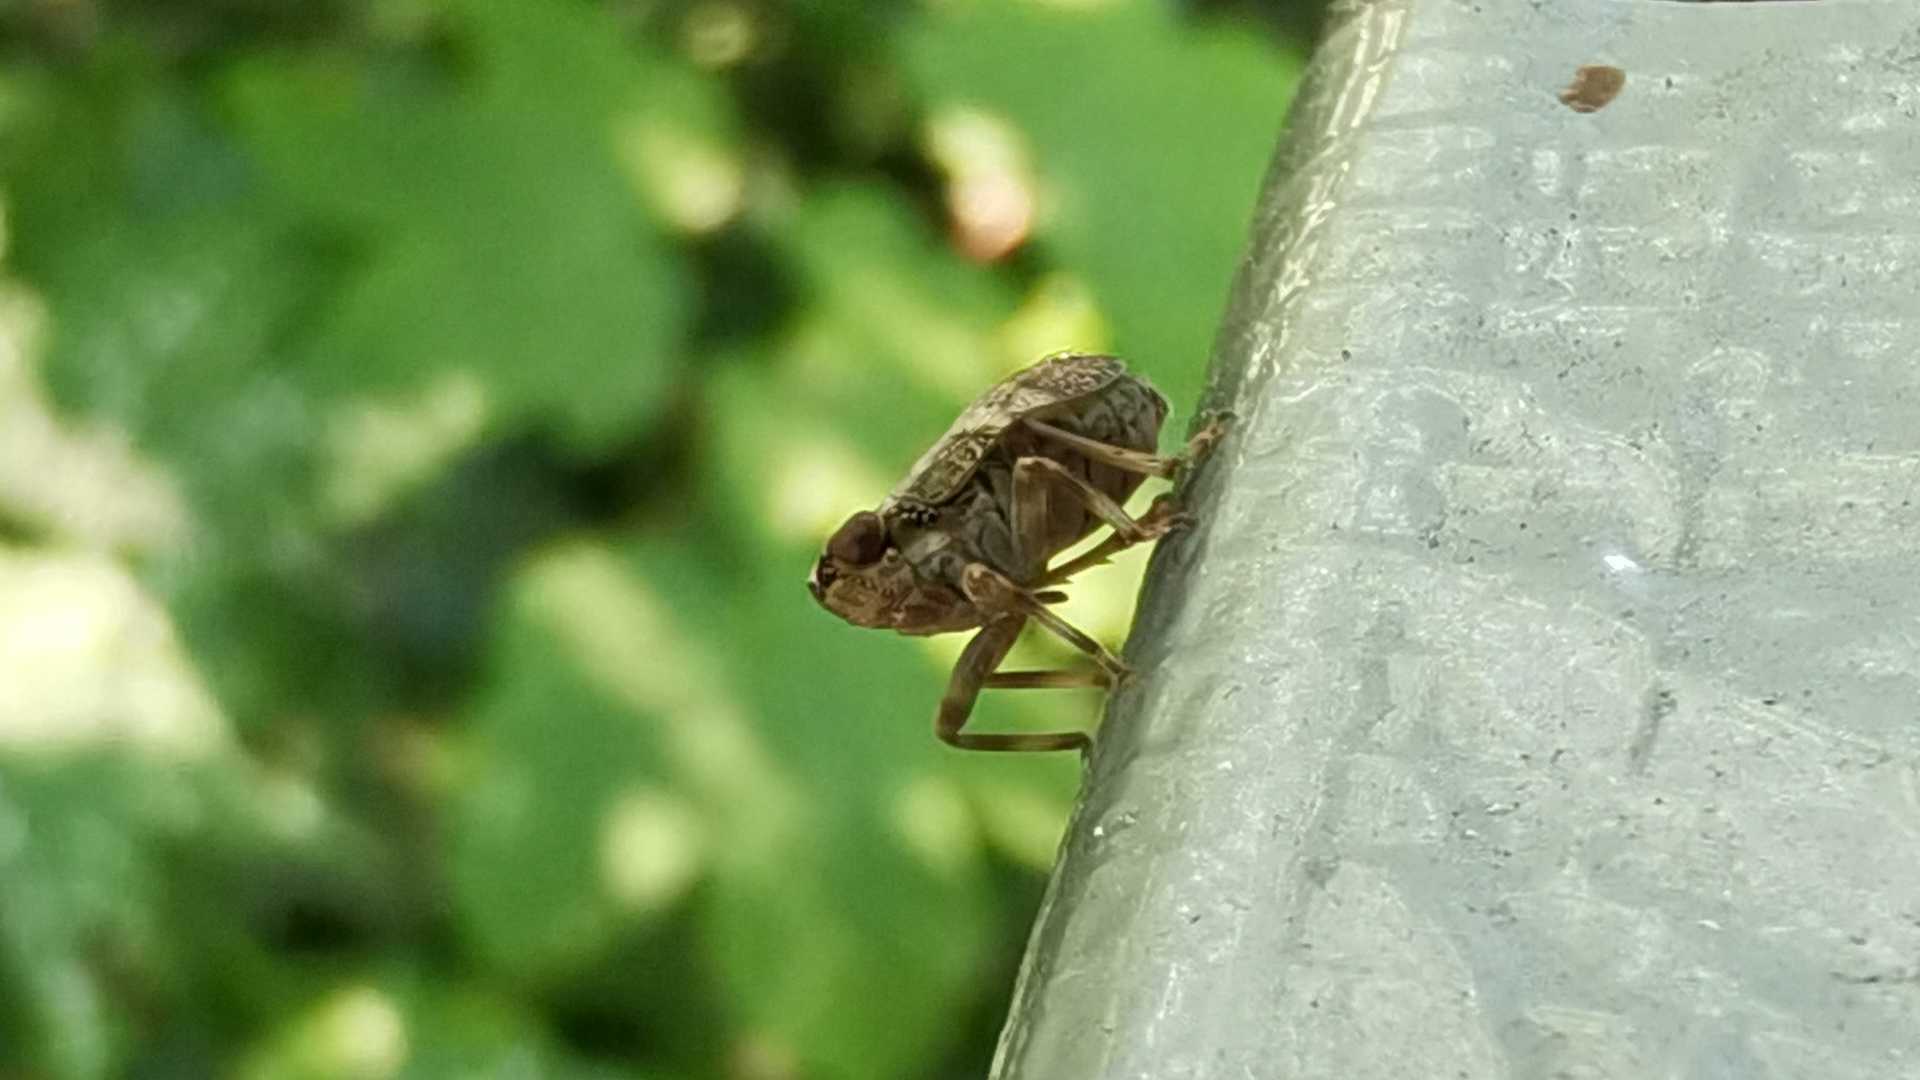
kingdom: Animalia
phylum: Arthropoda
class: Insecta
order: Hemiptera
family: Issidae
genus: Issus
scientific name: Issus coleoptratus
